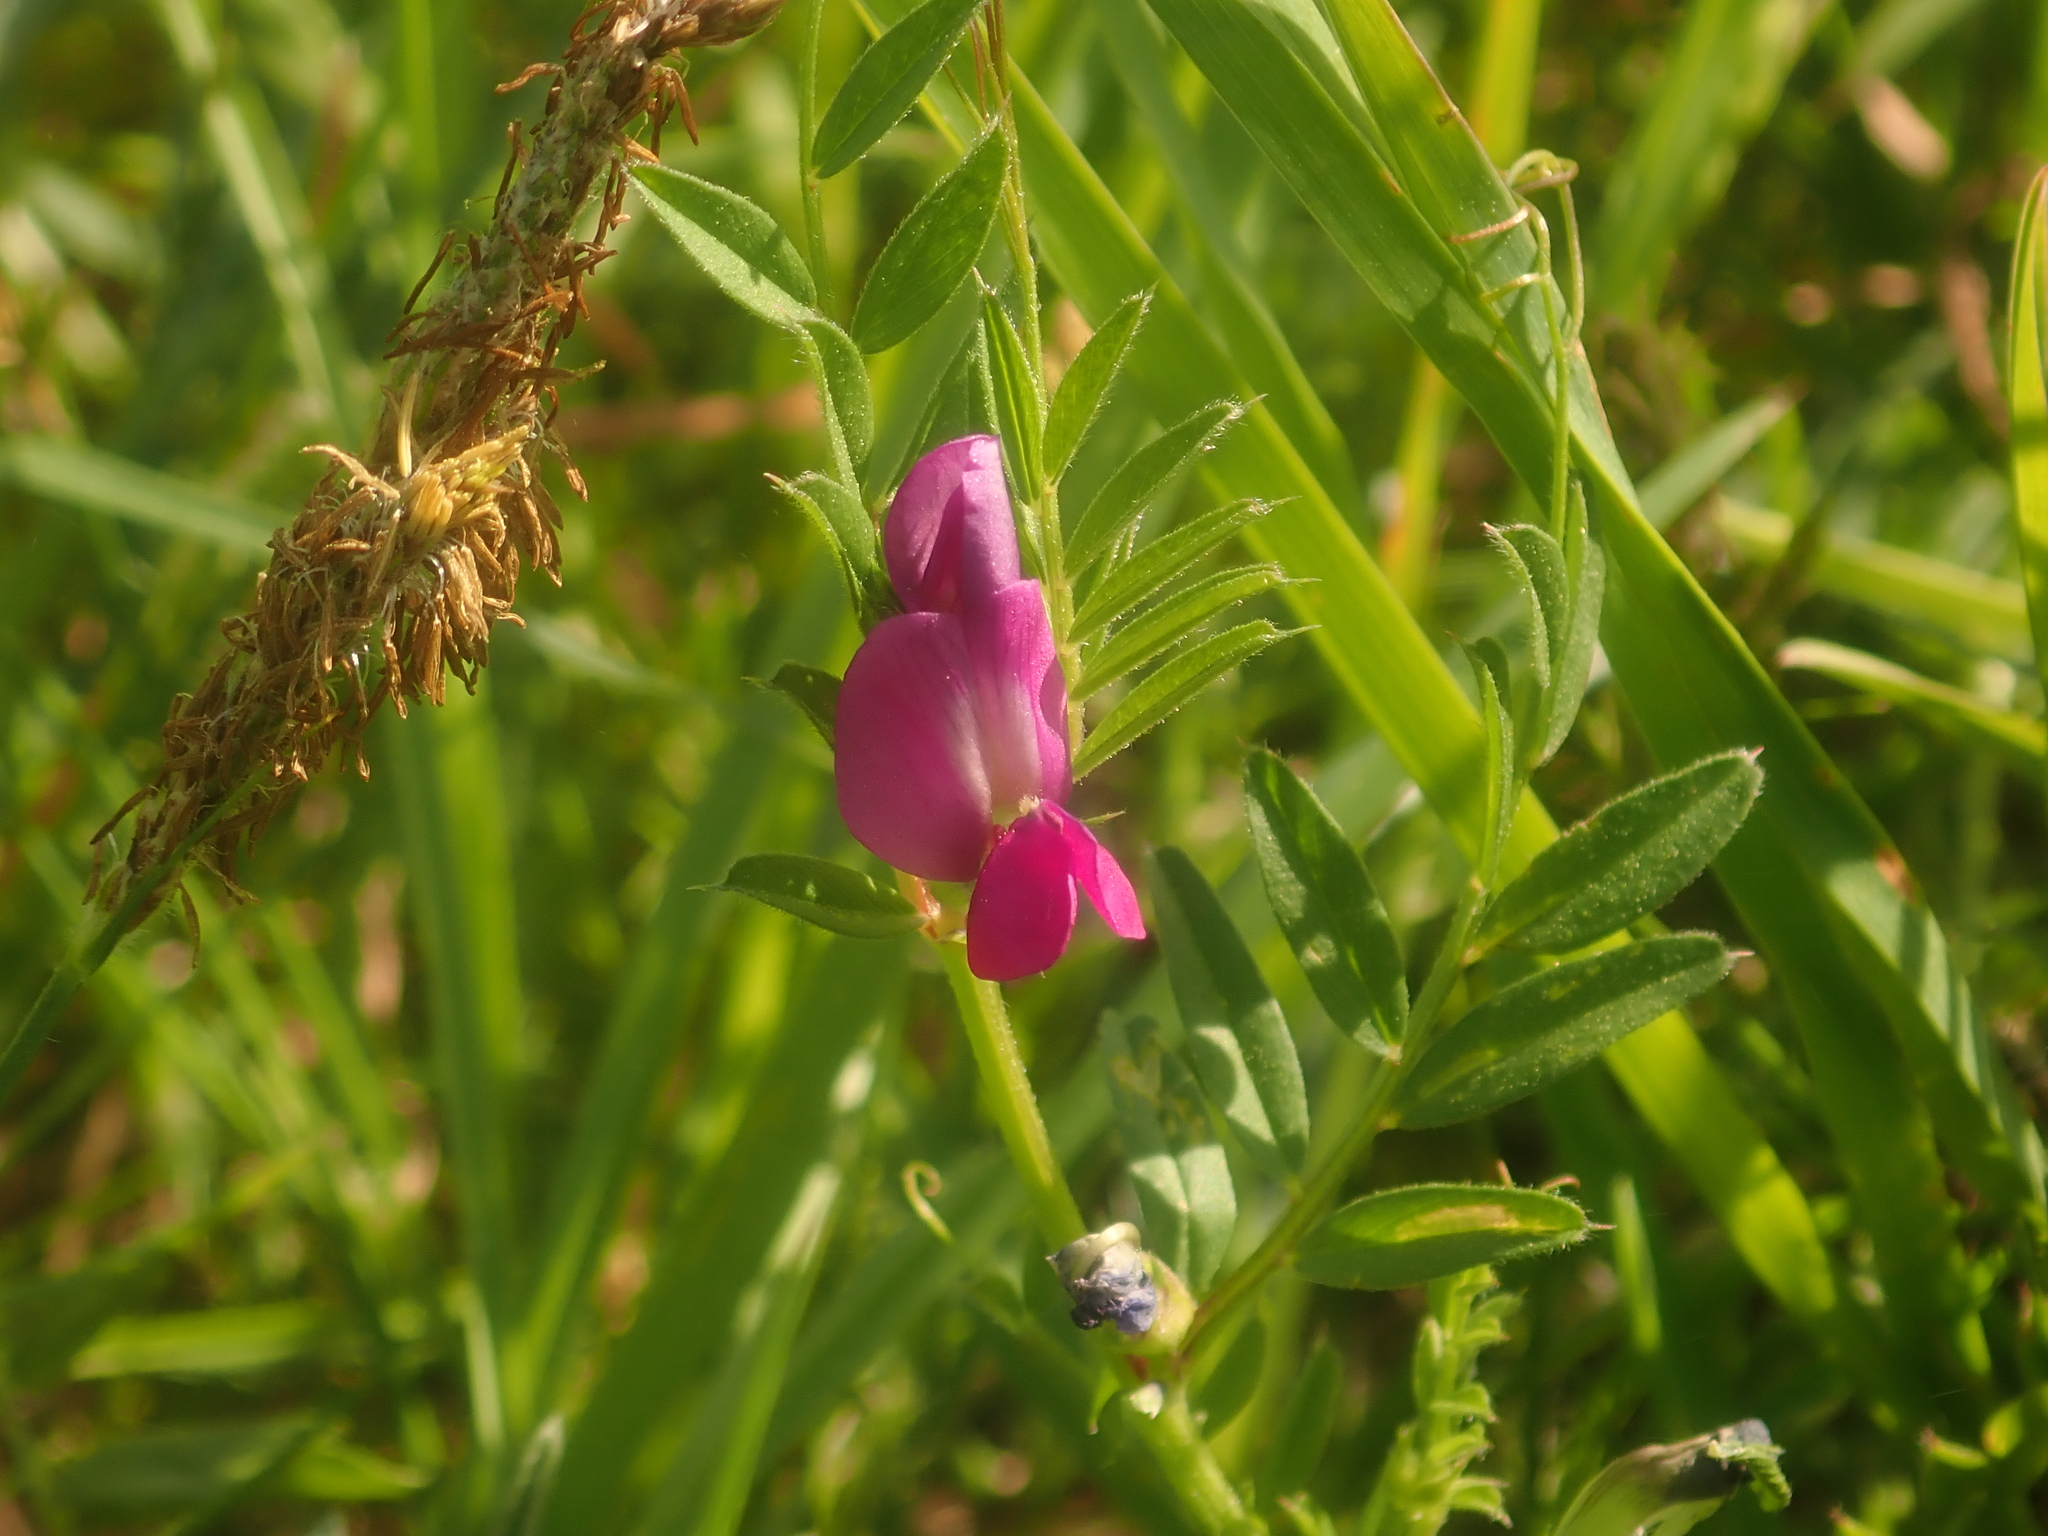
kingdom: Plantae
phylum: Tracheophyta
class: Magnoliopsida
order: Fabales
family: Fabaceae
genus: Vicia
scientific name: Vicia sativa
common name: Garden vetch
